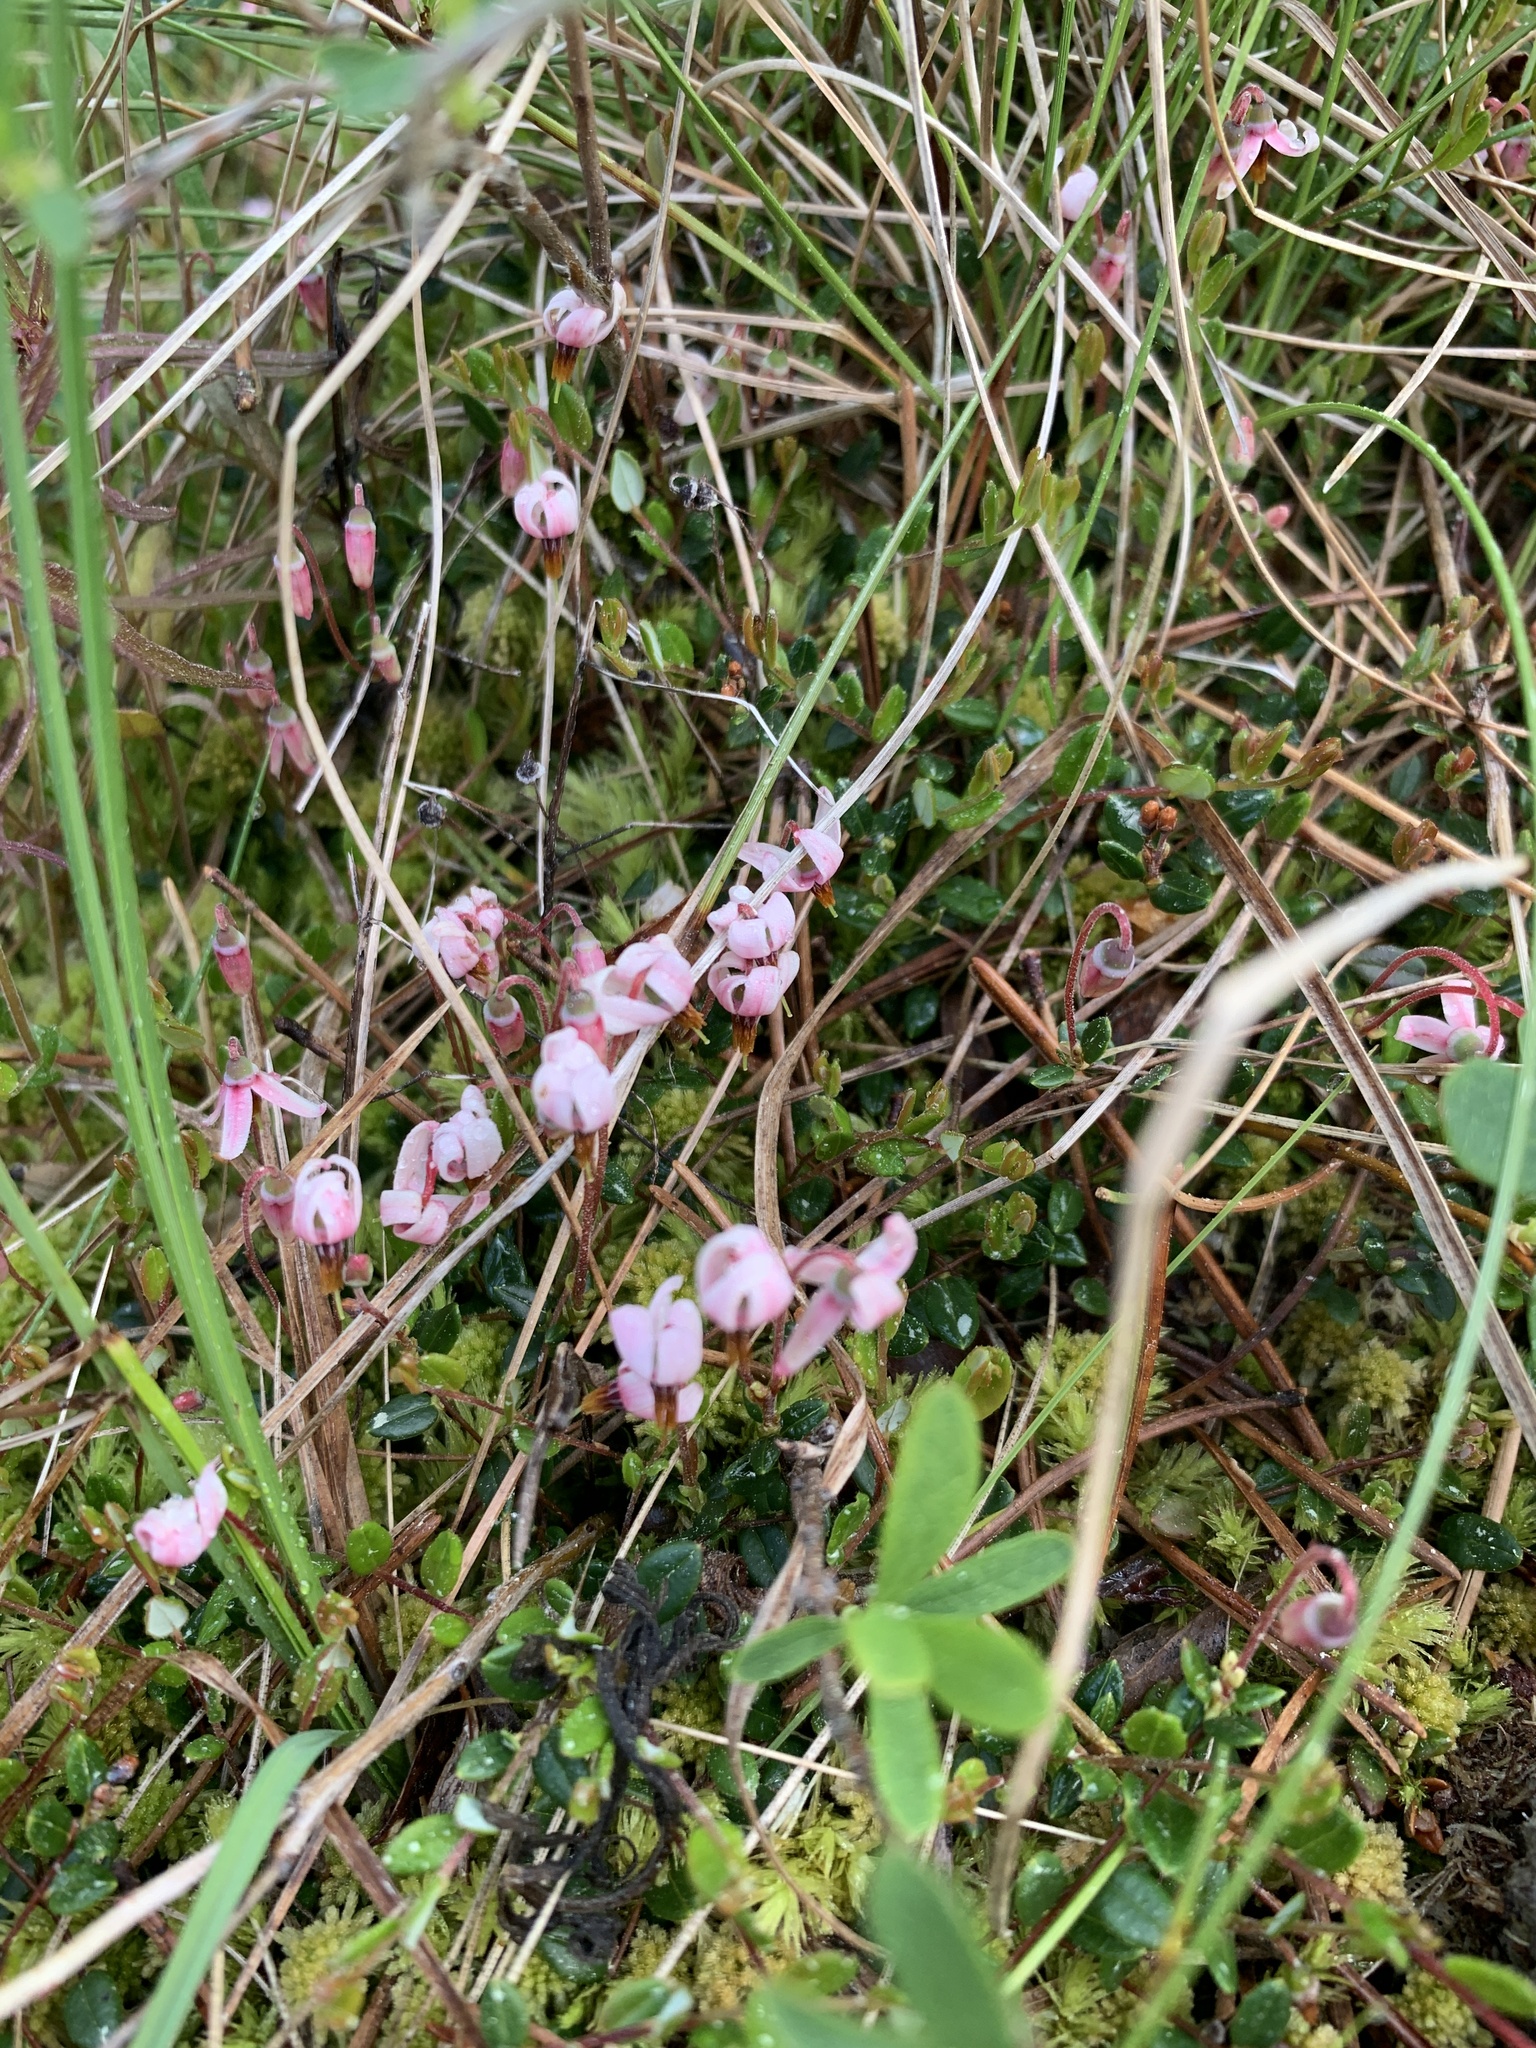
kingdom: Plantae
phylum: Tracheophyta
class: Magnoliopsida
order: Ericales
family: Ericaceae
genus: Vaccinium
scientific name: Vaccinium oxycoccos
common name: Cranberry
